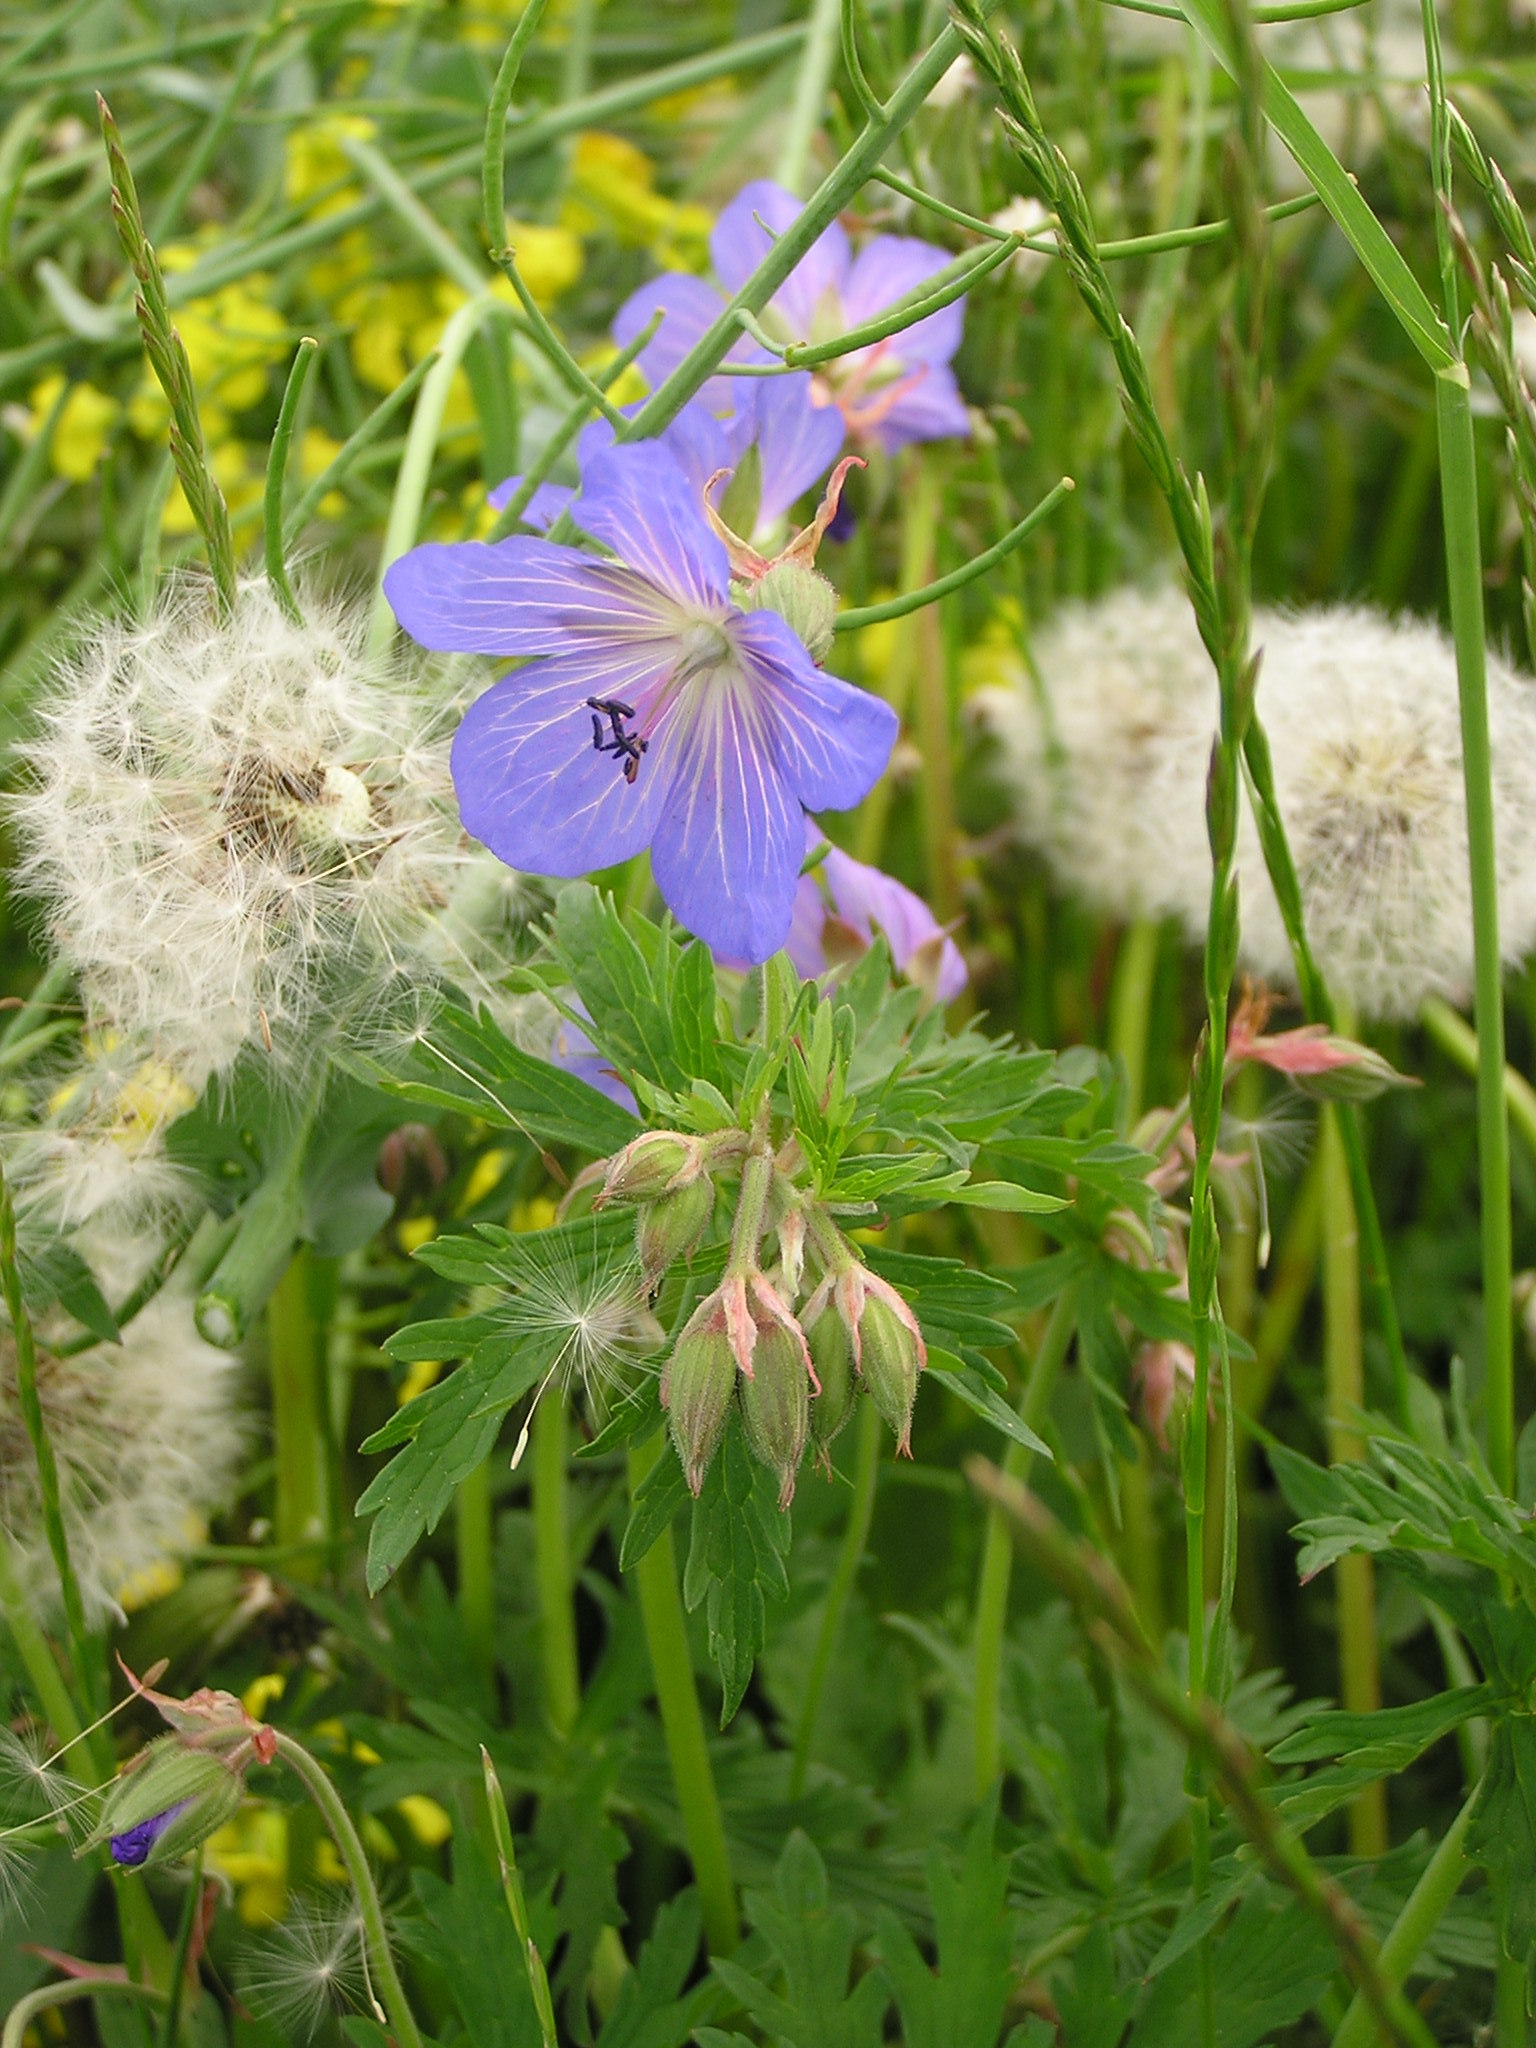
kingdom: Plantae
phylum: Tracheophyta
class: Magnoliopsida
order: Geraniales
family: Geraniaceae
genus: Geranium
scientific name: Geranium pratense
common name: Meadow crane's-bill
